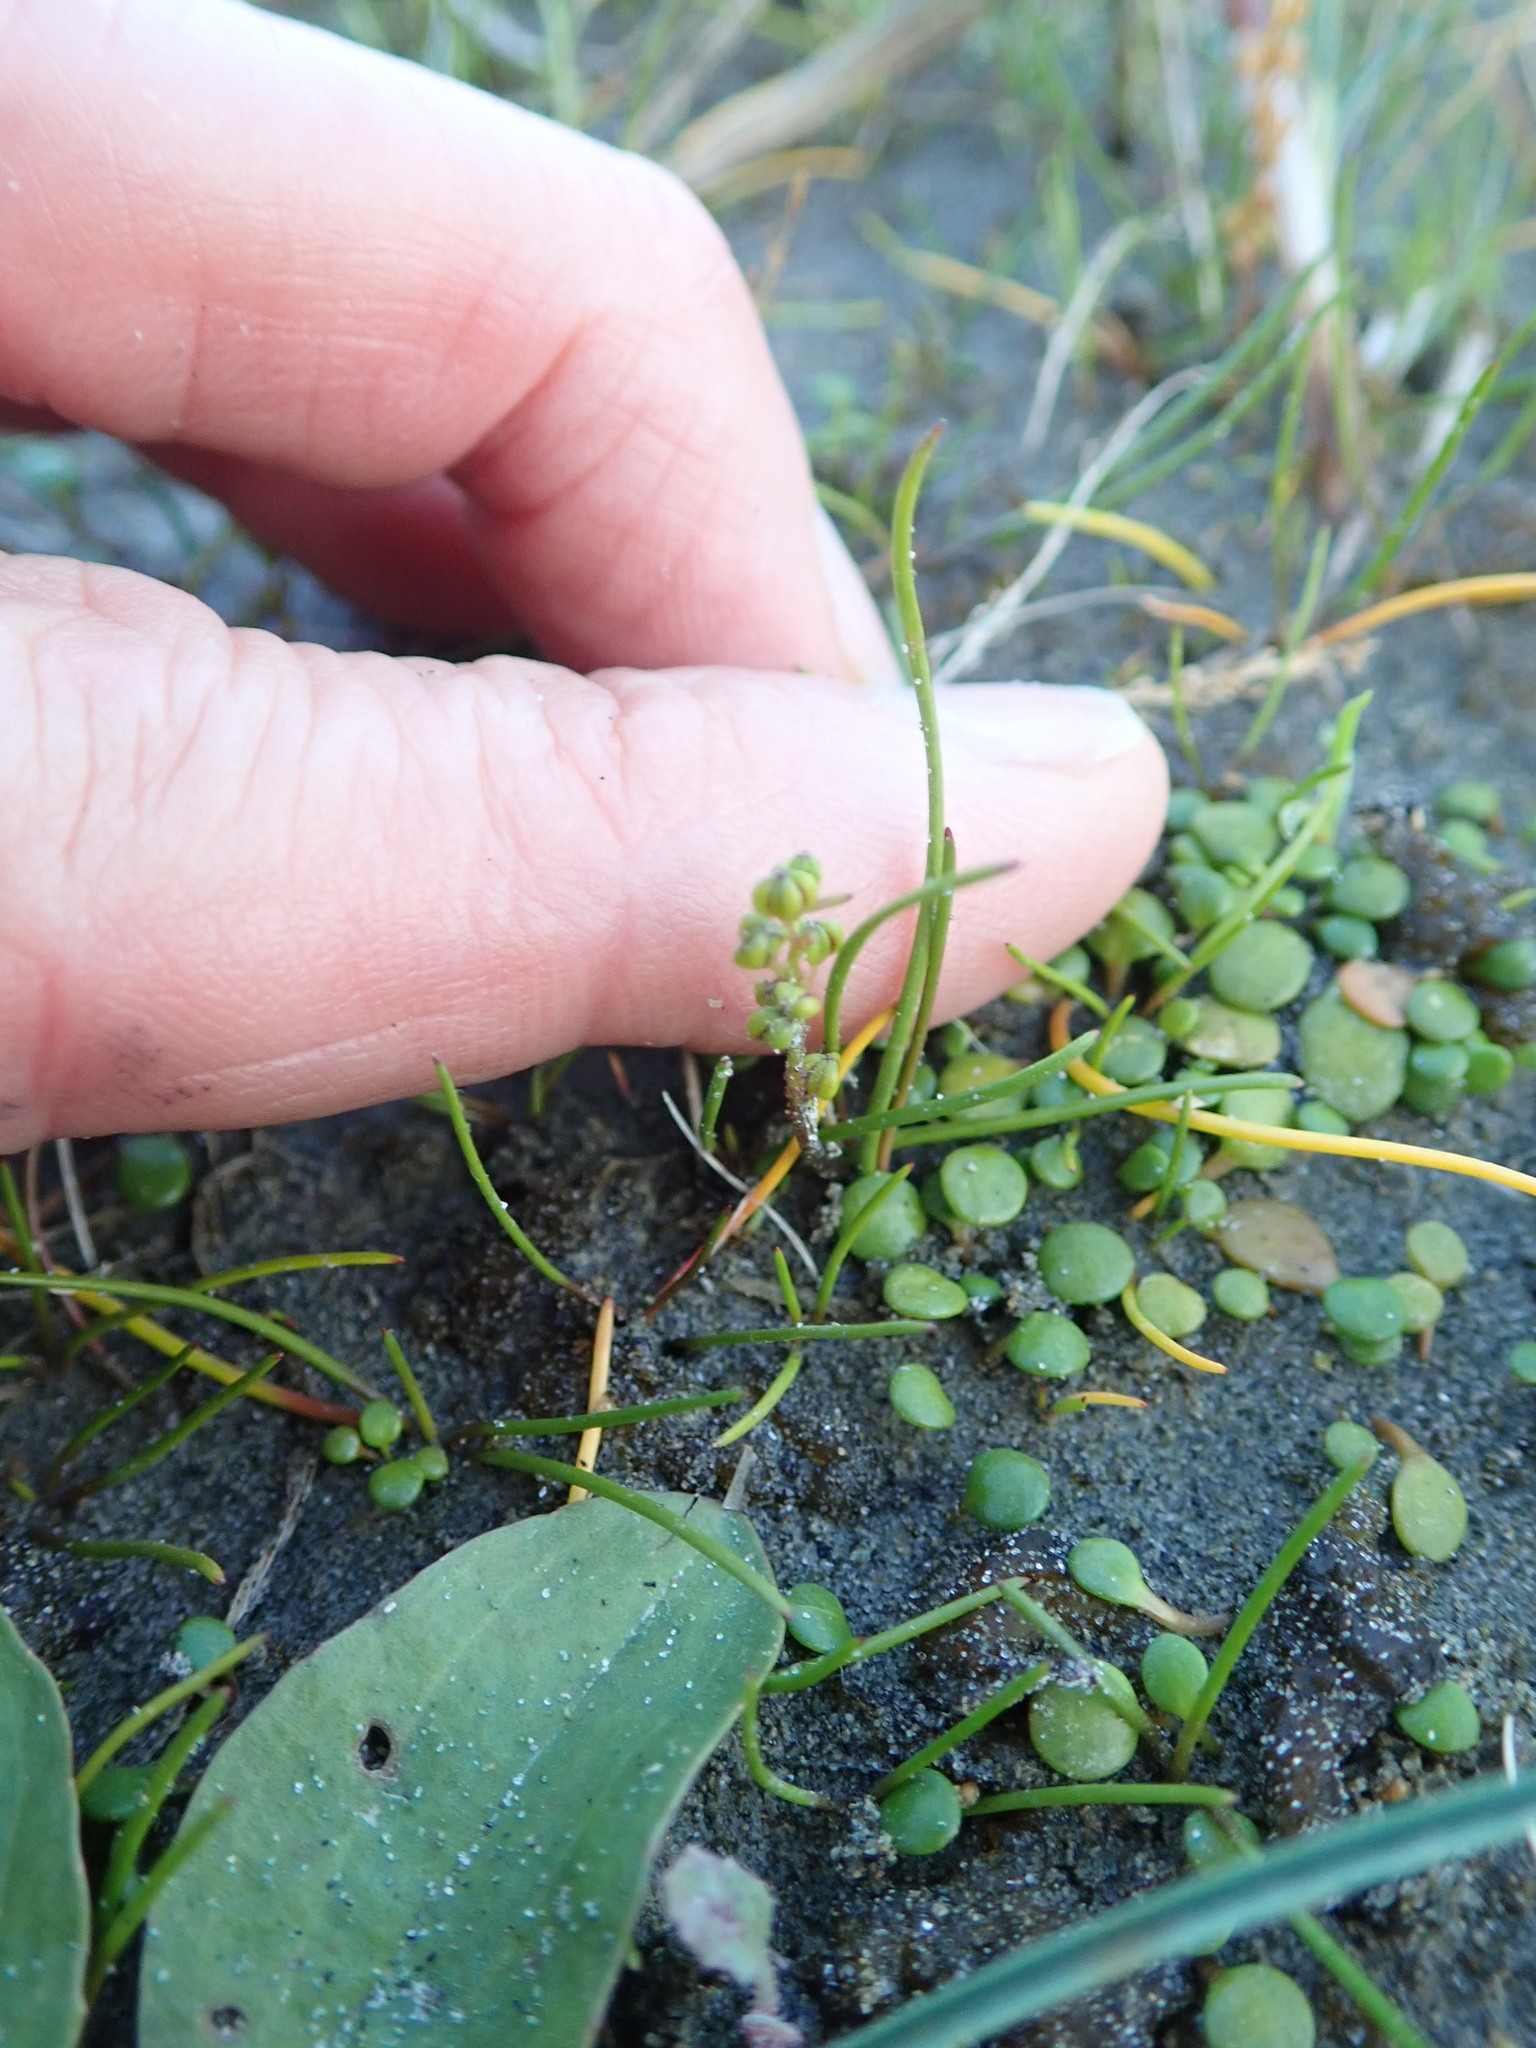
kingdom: Plantae
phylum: Tracheophyta
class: Liliopsida
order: Alismatales
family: Juncaginaceae
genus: Triglochin
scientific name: Triglochin striata
